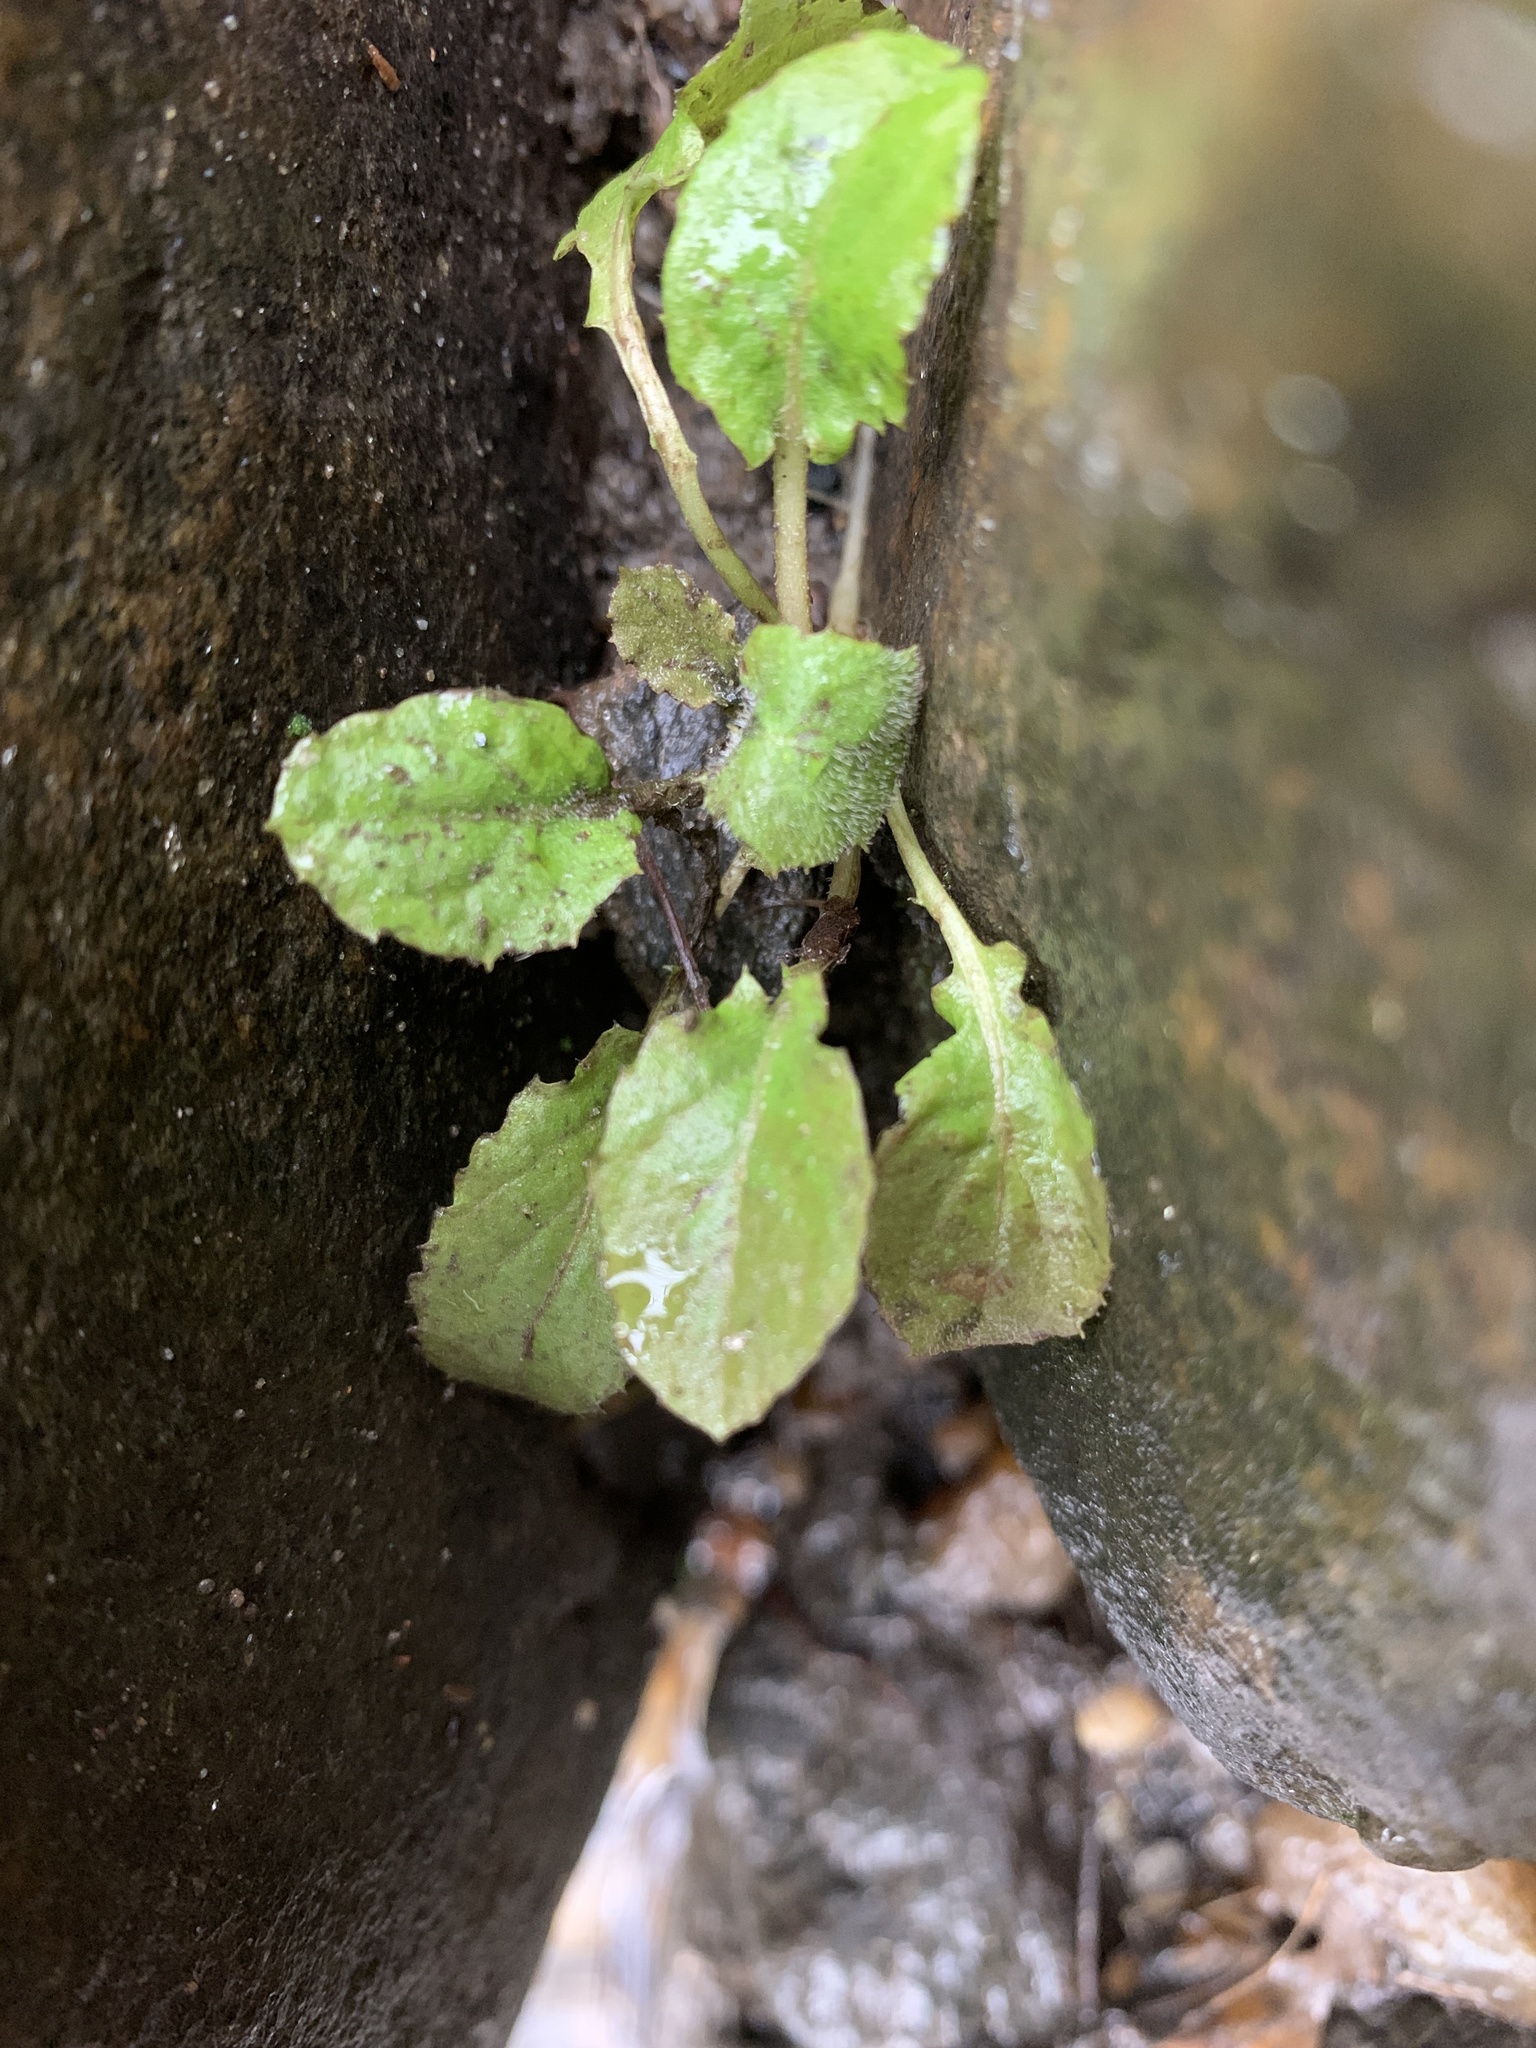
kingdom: Plantae
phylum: Tracheophyta
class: Magnoliopsida
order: Asterales
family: Asteraceae
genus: Youngia
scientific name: Youngia japonica
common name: Oriental false hawksbeard
